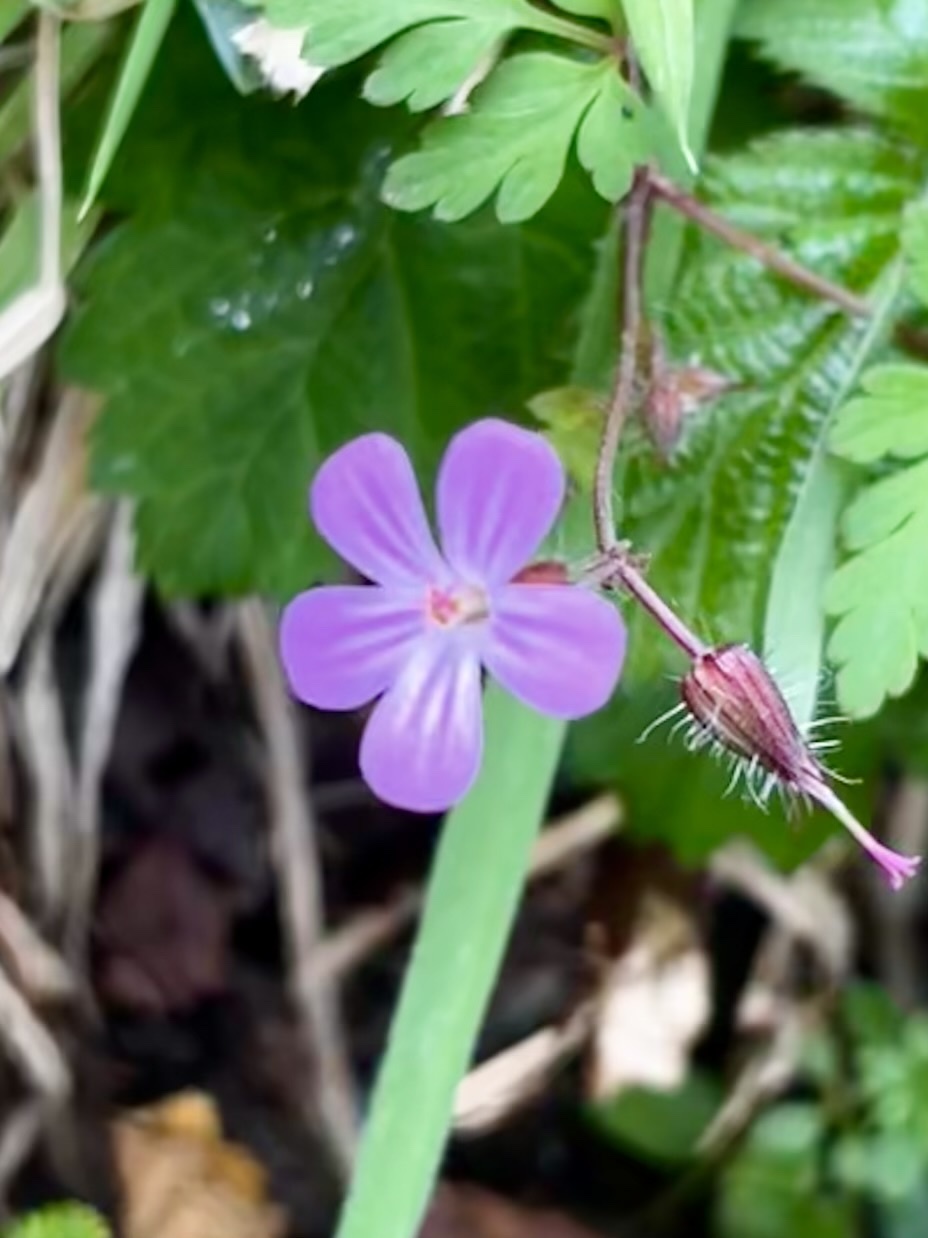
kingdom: Plantae
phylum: Tracheophyta
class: Magnoliopsida
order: Geraniales
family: Geraniaceae
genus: Geranium
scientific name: Geranium robertianum
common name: Herb-robert
